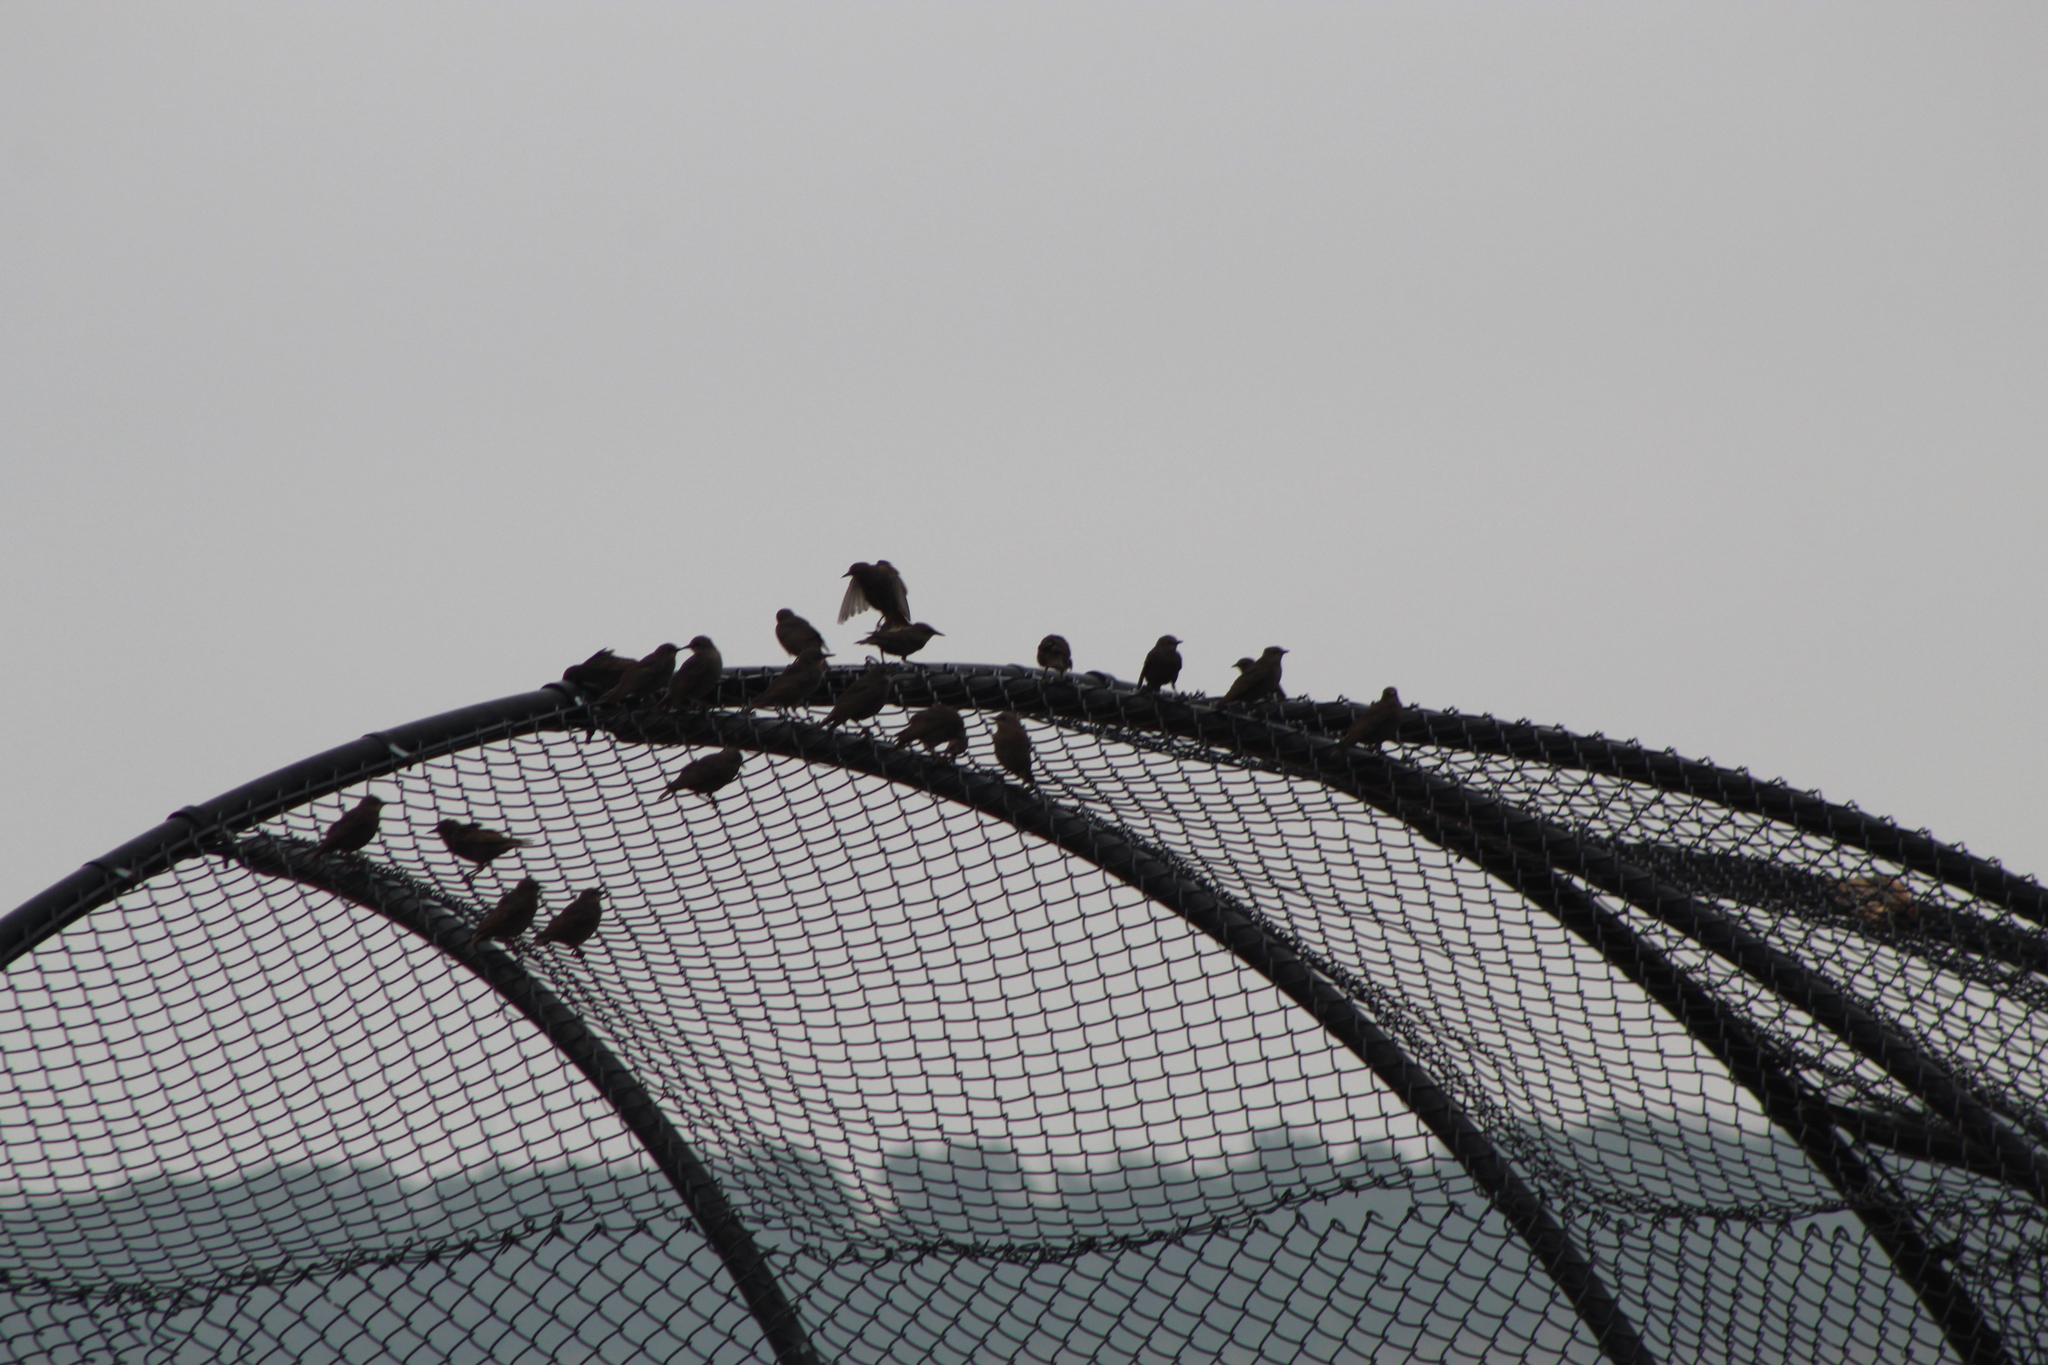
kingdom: Animalia
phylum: Chordata
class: Aves
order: Passeriformes
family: Sturnidae
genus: Sturnus
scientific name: Sturnus vulgaris
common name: Common starling
